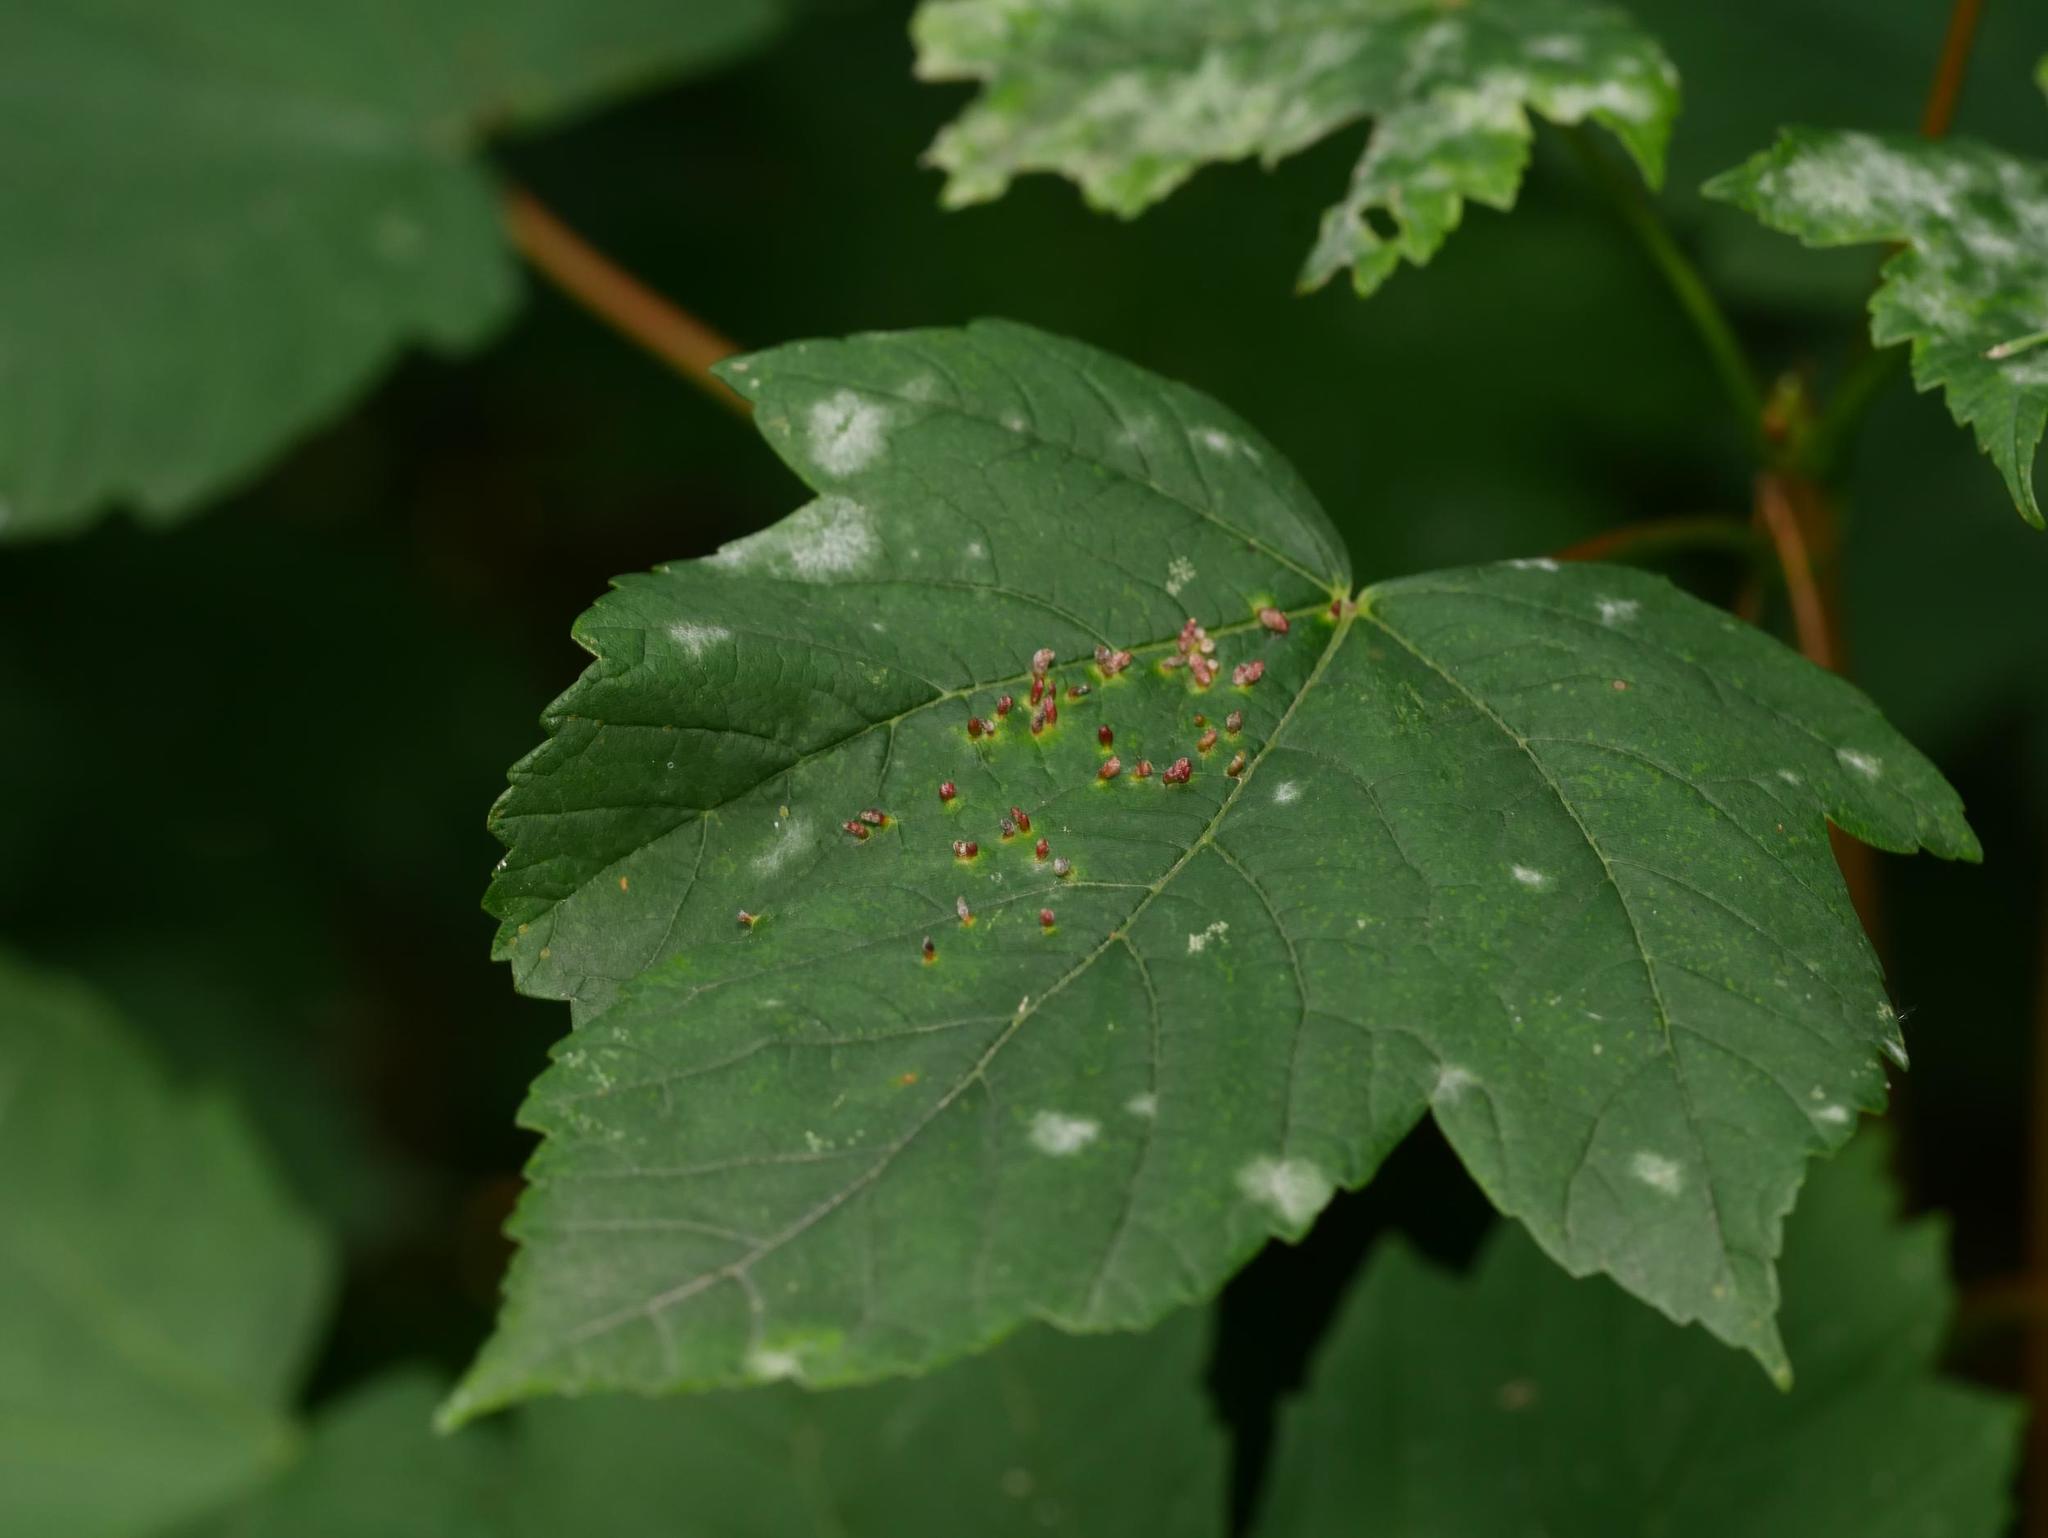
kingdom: Plantae
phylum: Tracheophyta
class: Magnoliopsida
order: Sapindales
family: Sapindaceae
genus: Acer
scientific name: Acer pseudoplatanus
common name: Sycamore
